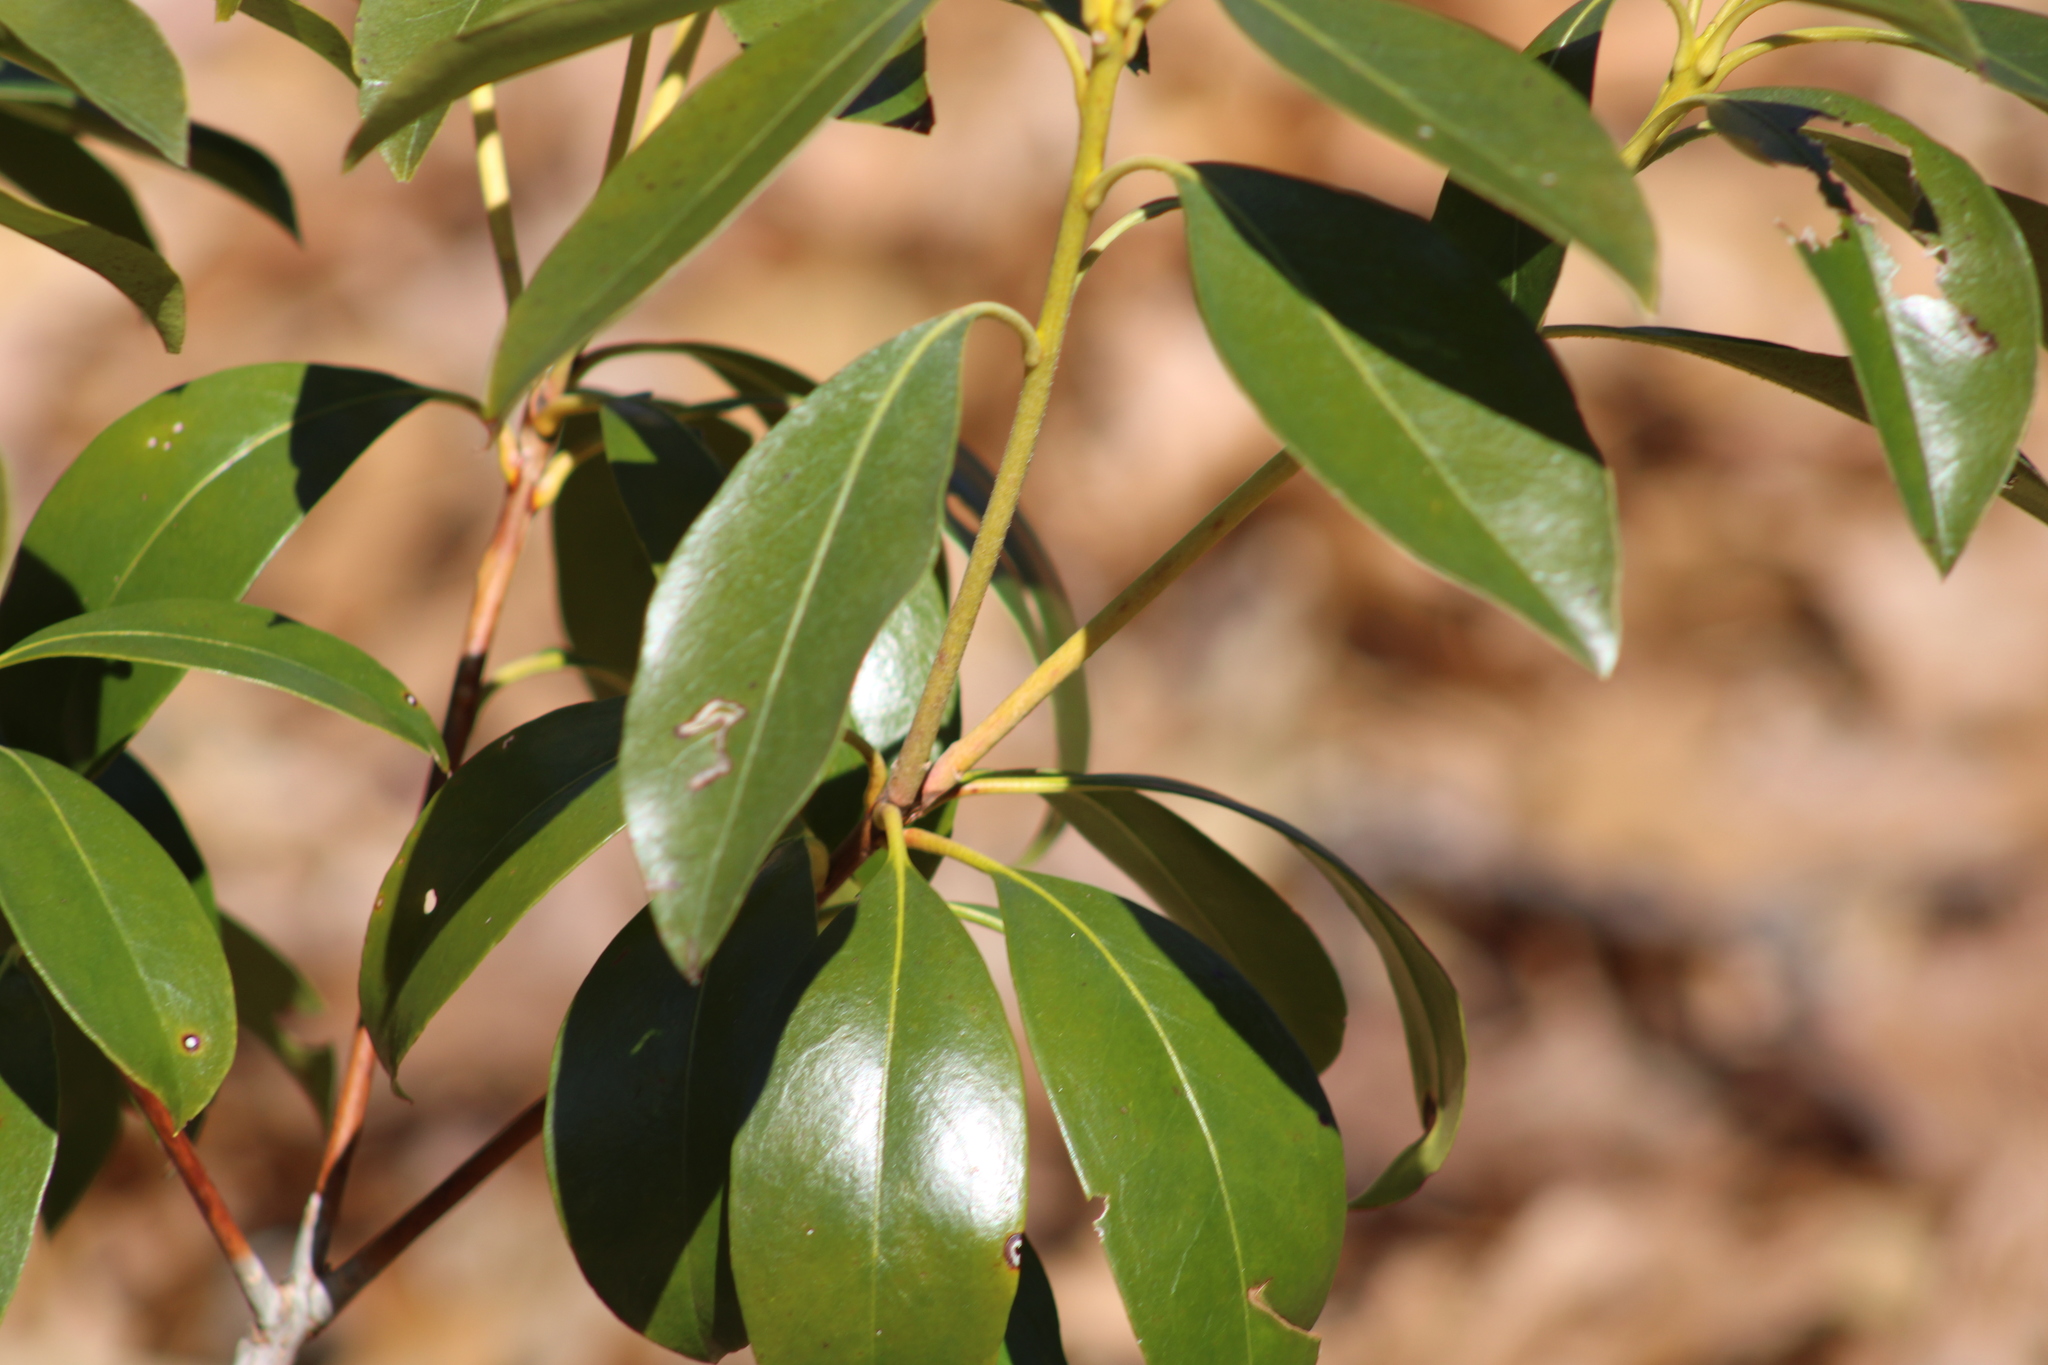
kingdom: Plantae
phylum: Tracheophyta
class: Magnoliopsida
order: Ericales
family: Ericaceae
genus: Kalmia
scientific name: Kalmia latifolia
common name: Mountain-laurel
